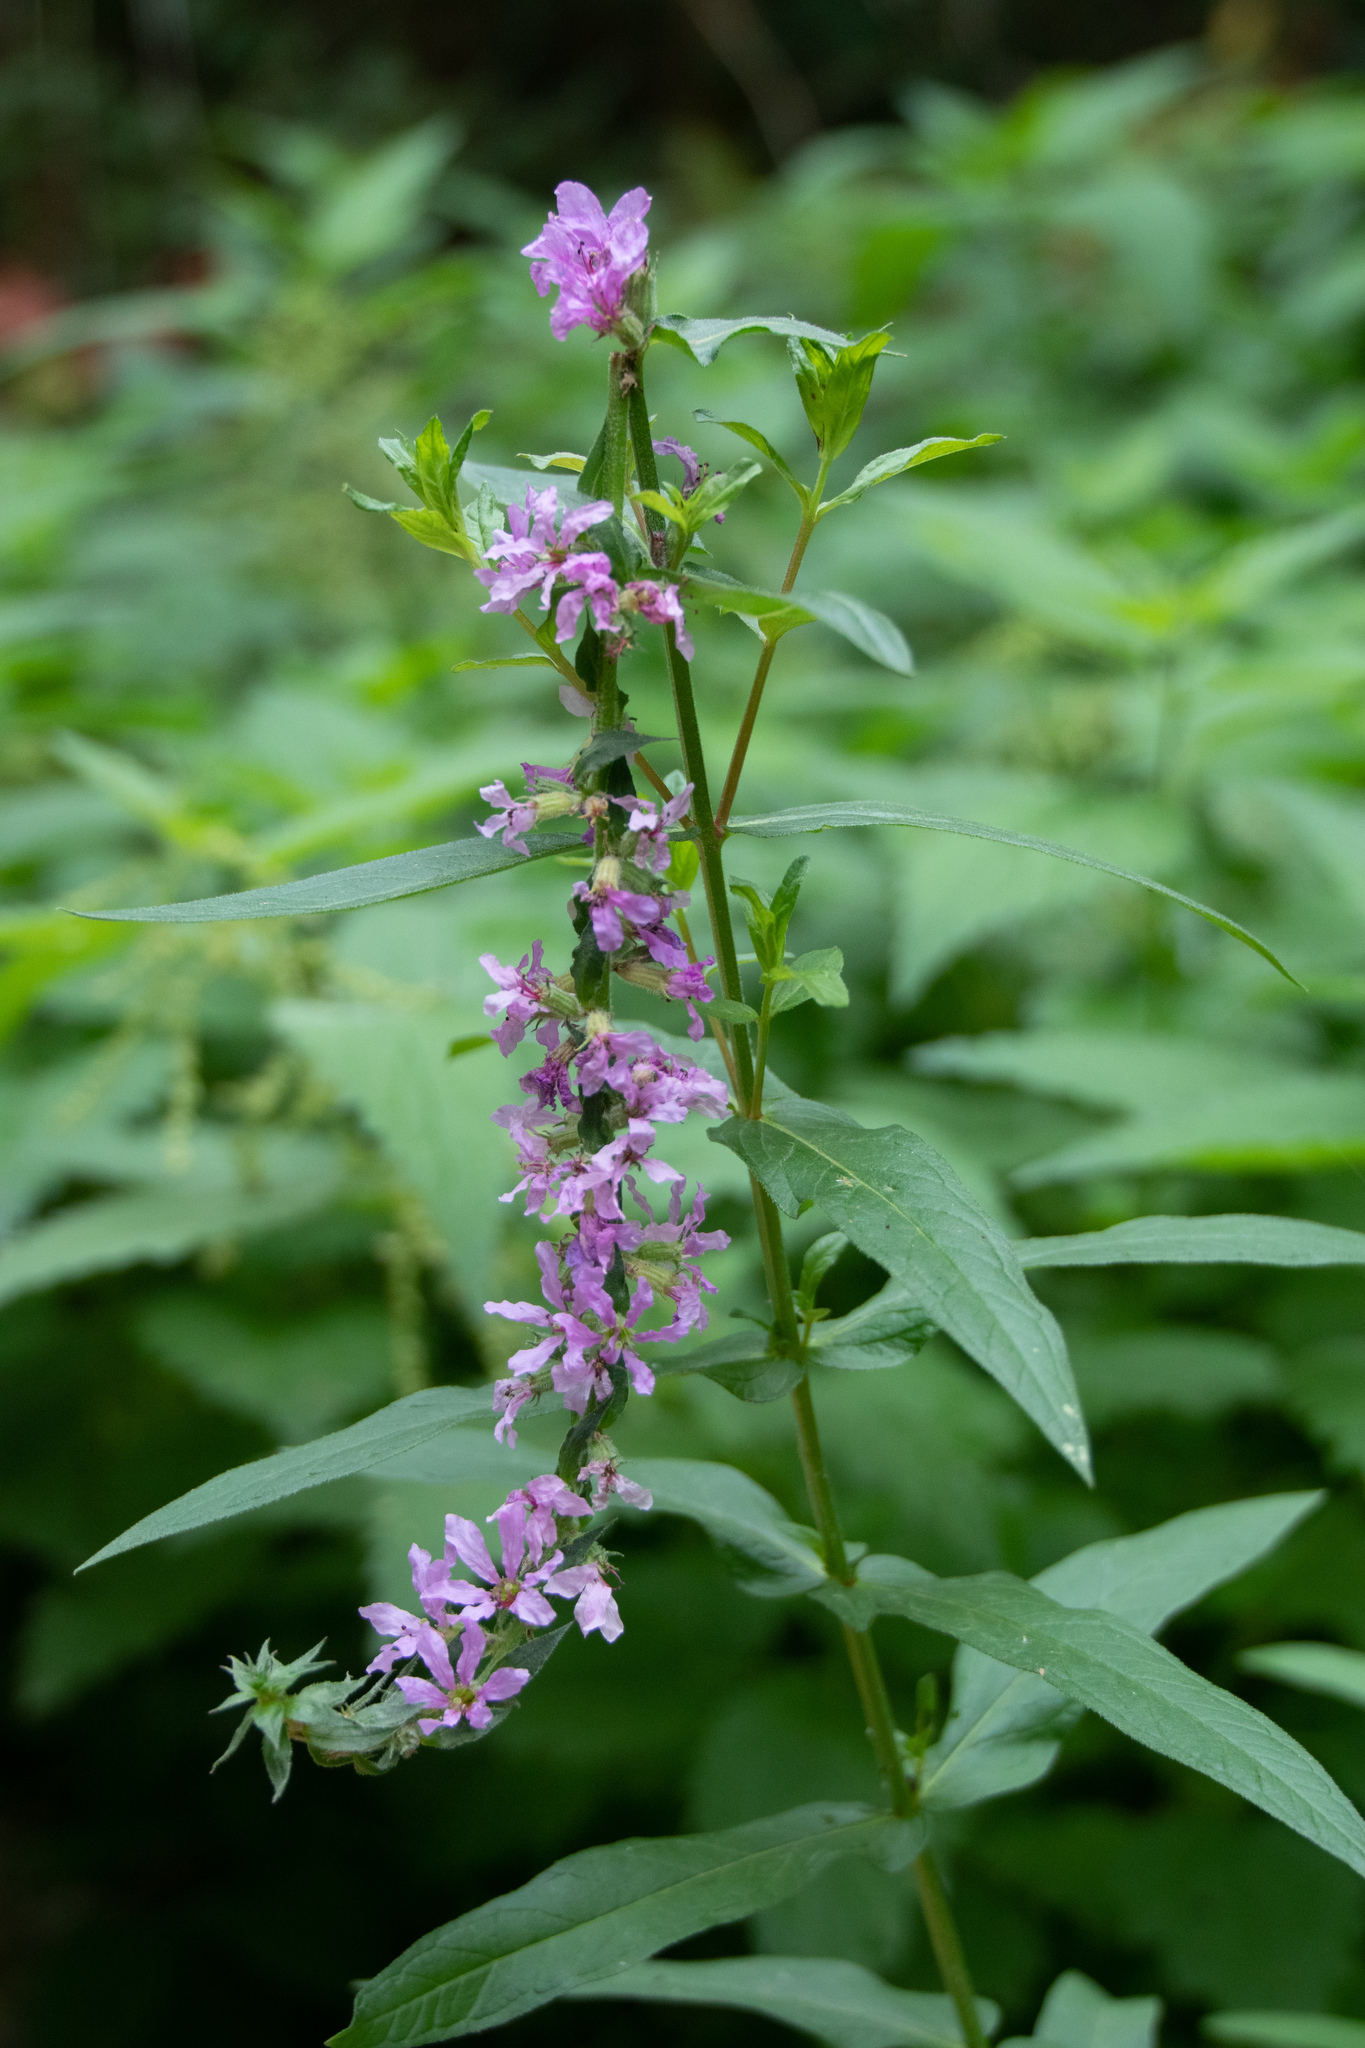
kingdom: Plantae
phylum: Tracheophyta
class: Magnoliopsida
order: Myrtales
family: Lythraceae
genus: Lythrum
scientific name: Lythrum salicaria
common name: Purple loosestrife
